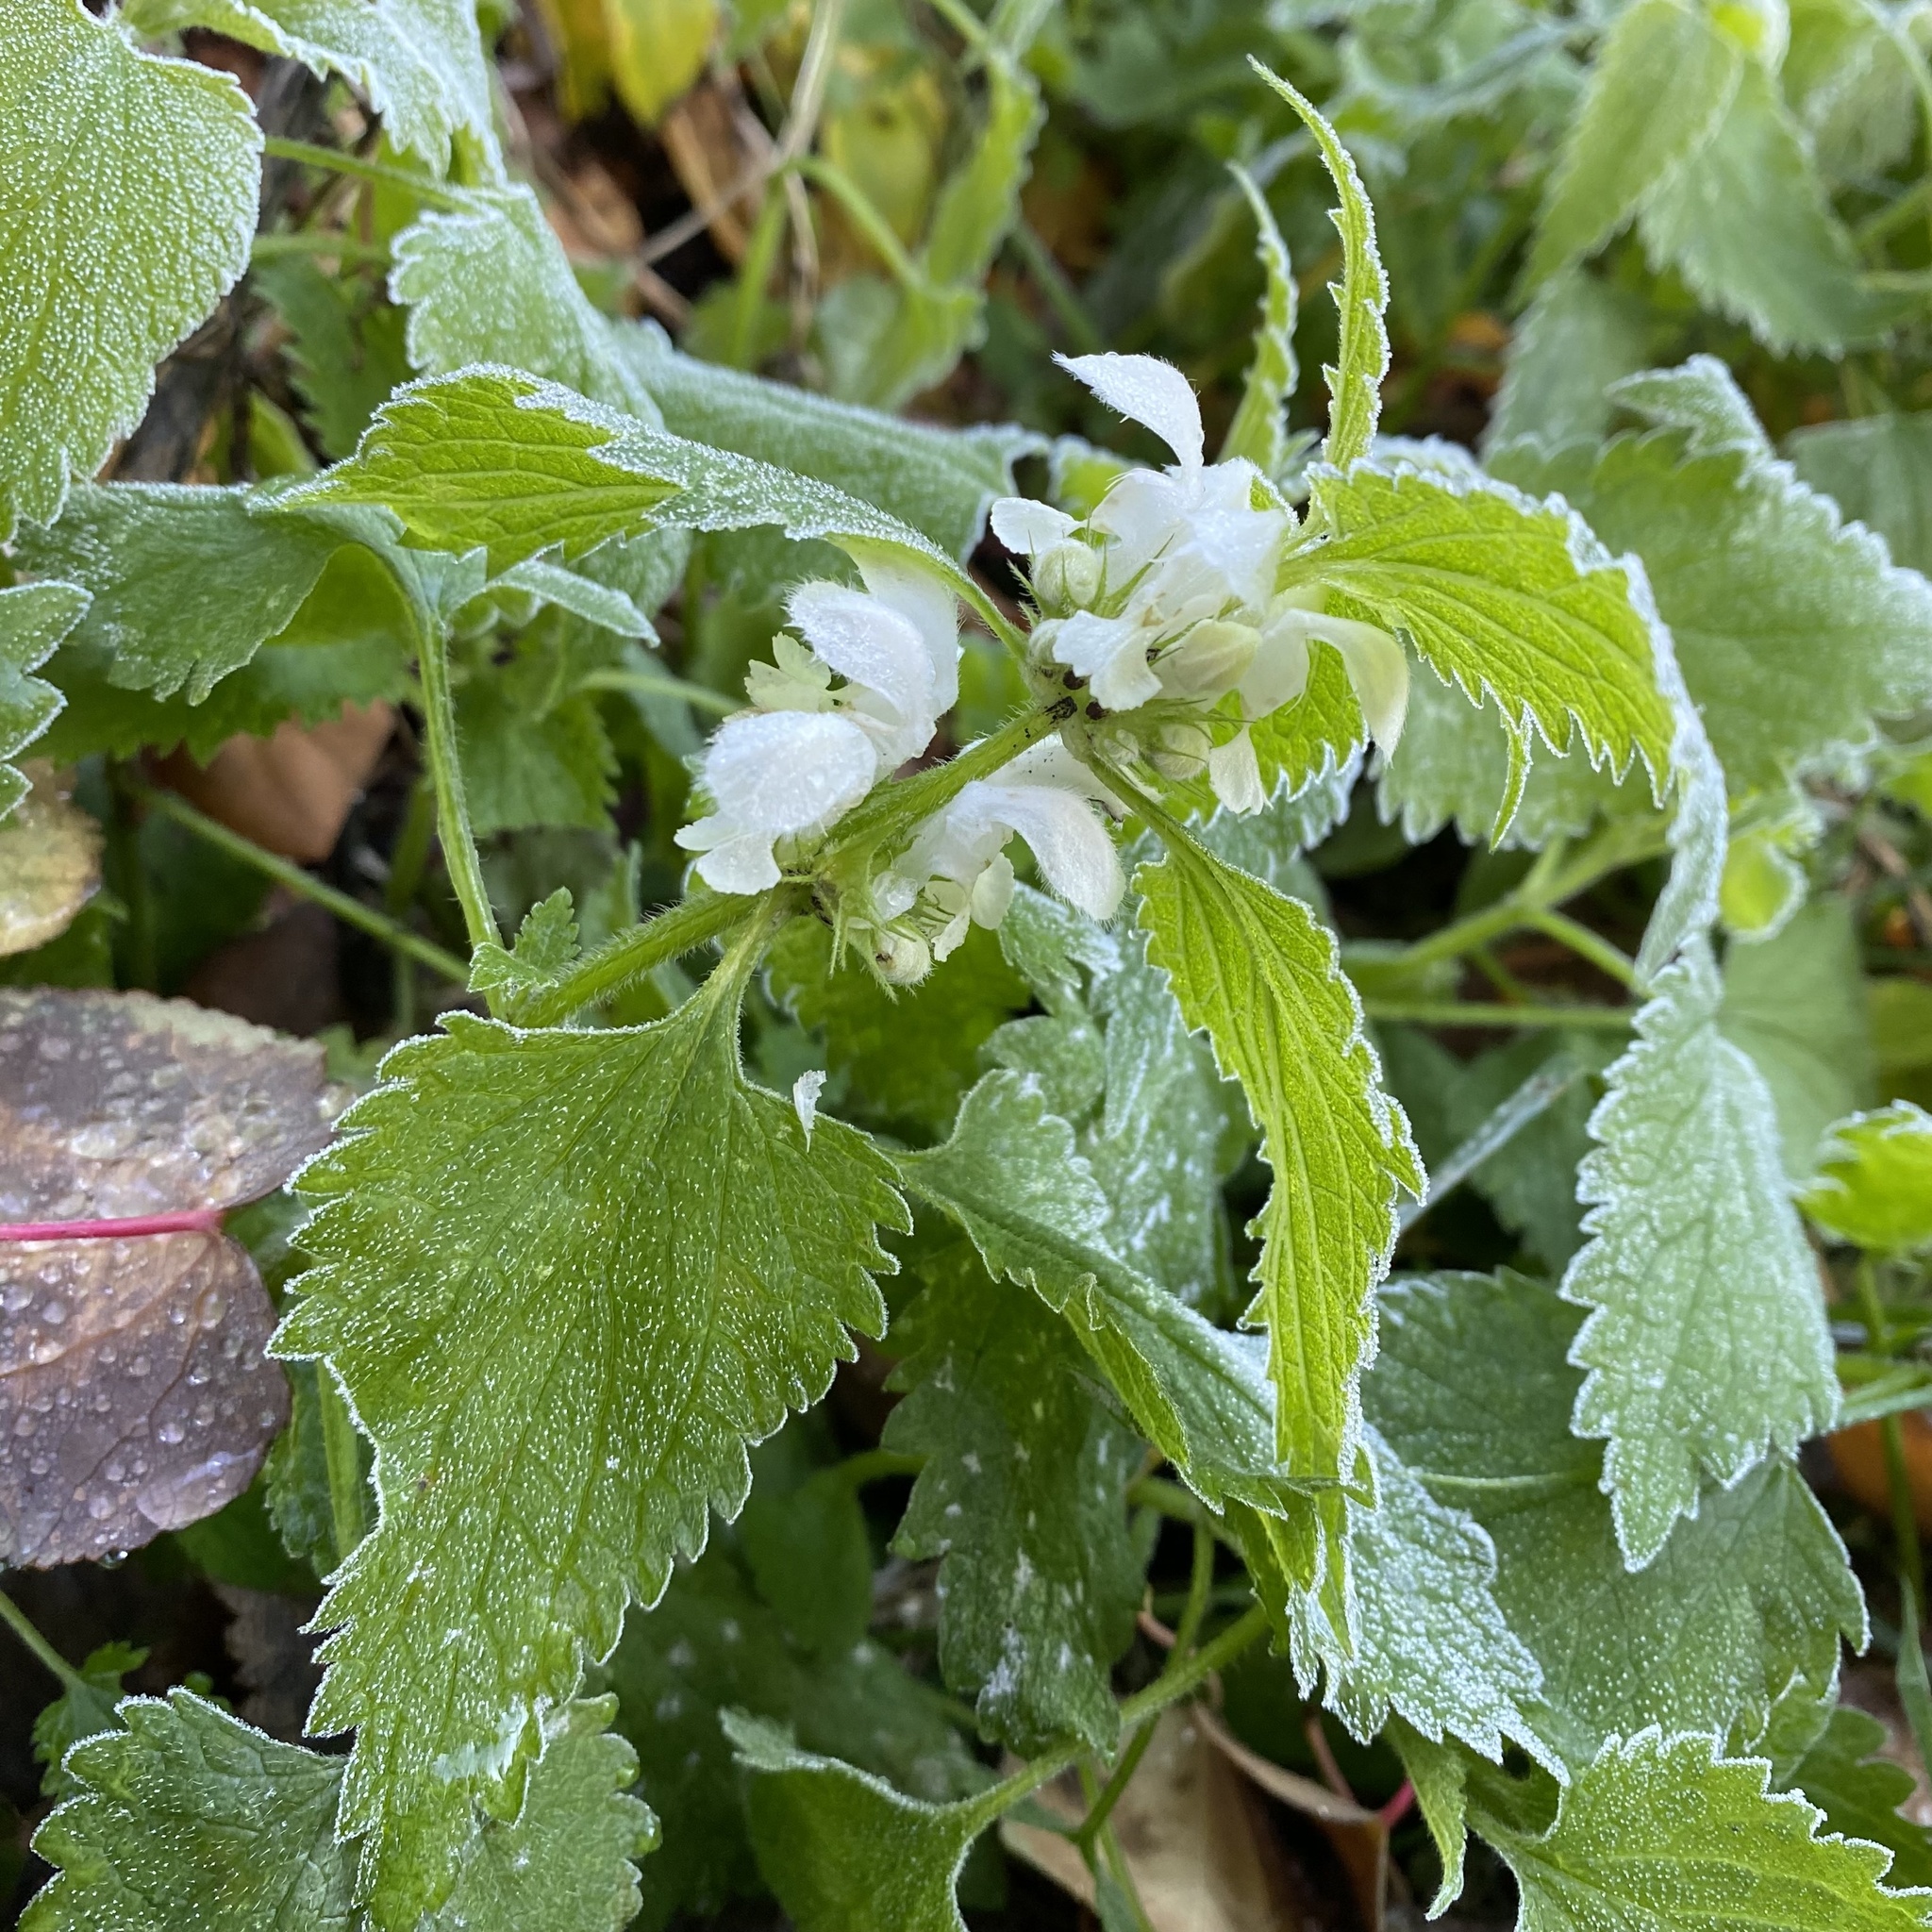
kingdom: Plantae
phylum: Tracheophyta
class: Magnoliopsida
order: Lamiales
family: Lamiaceae
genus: Lamium
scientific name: Lamium album
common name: White dead-nettle
